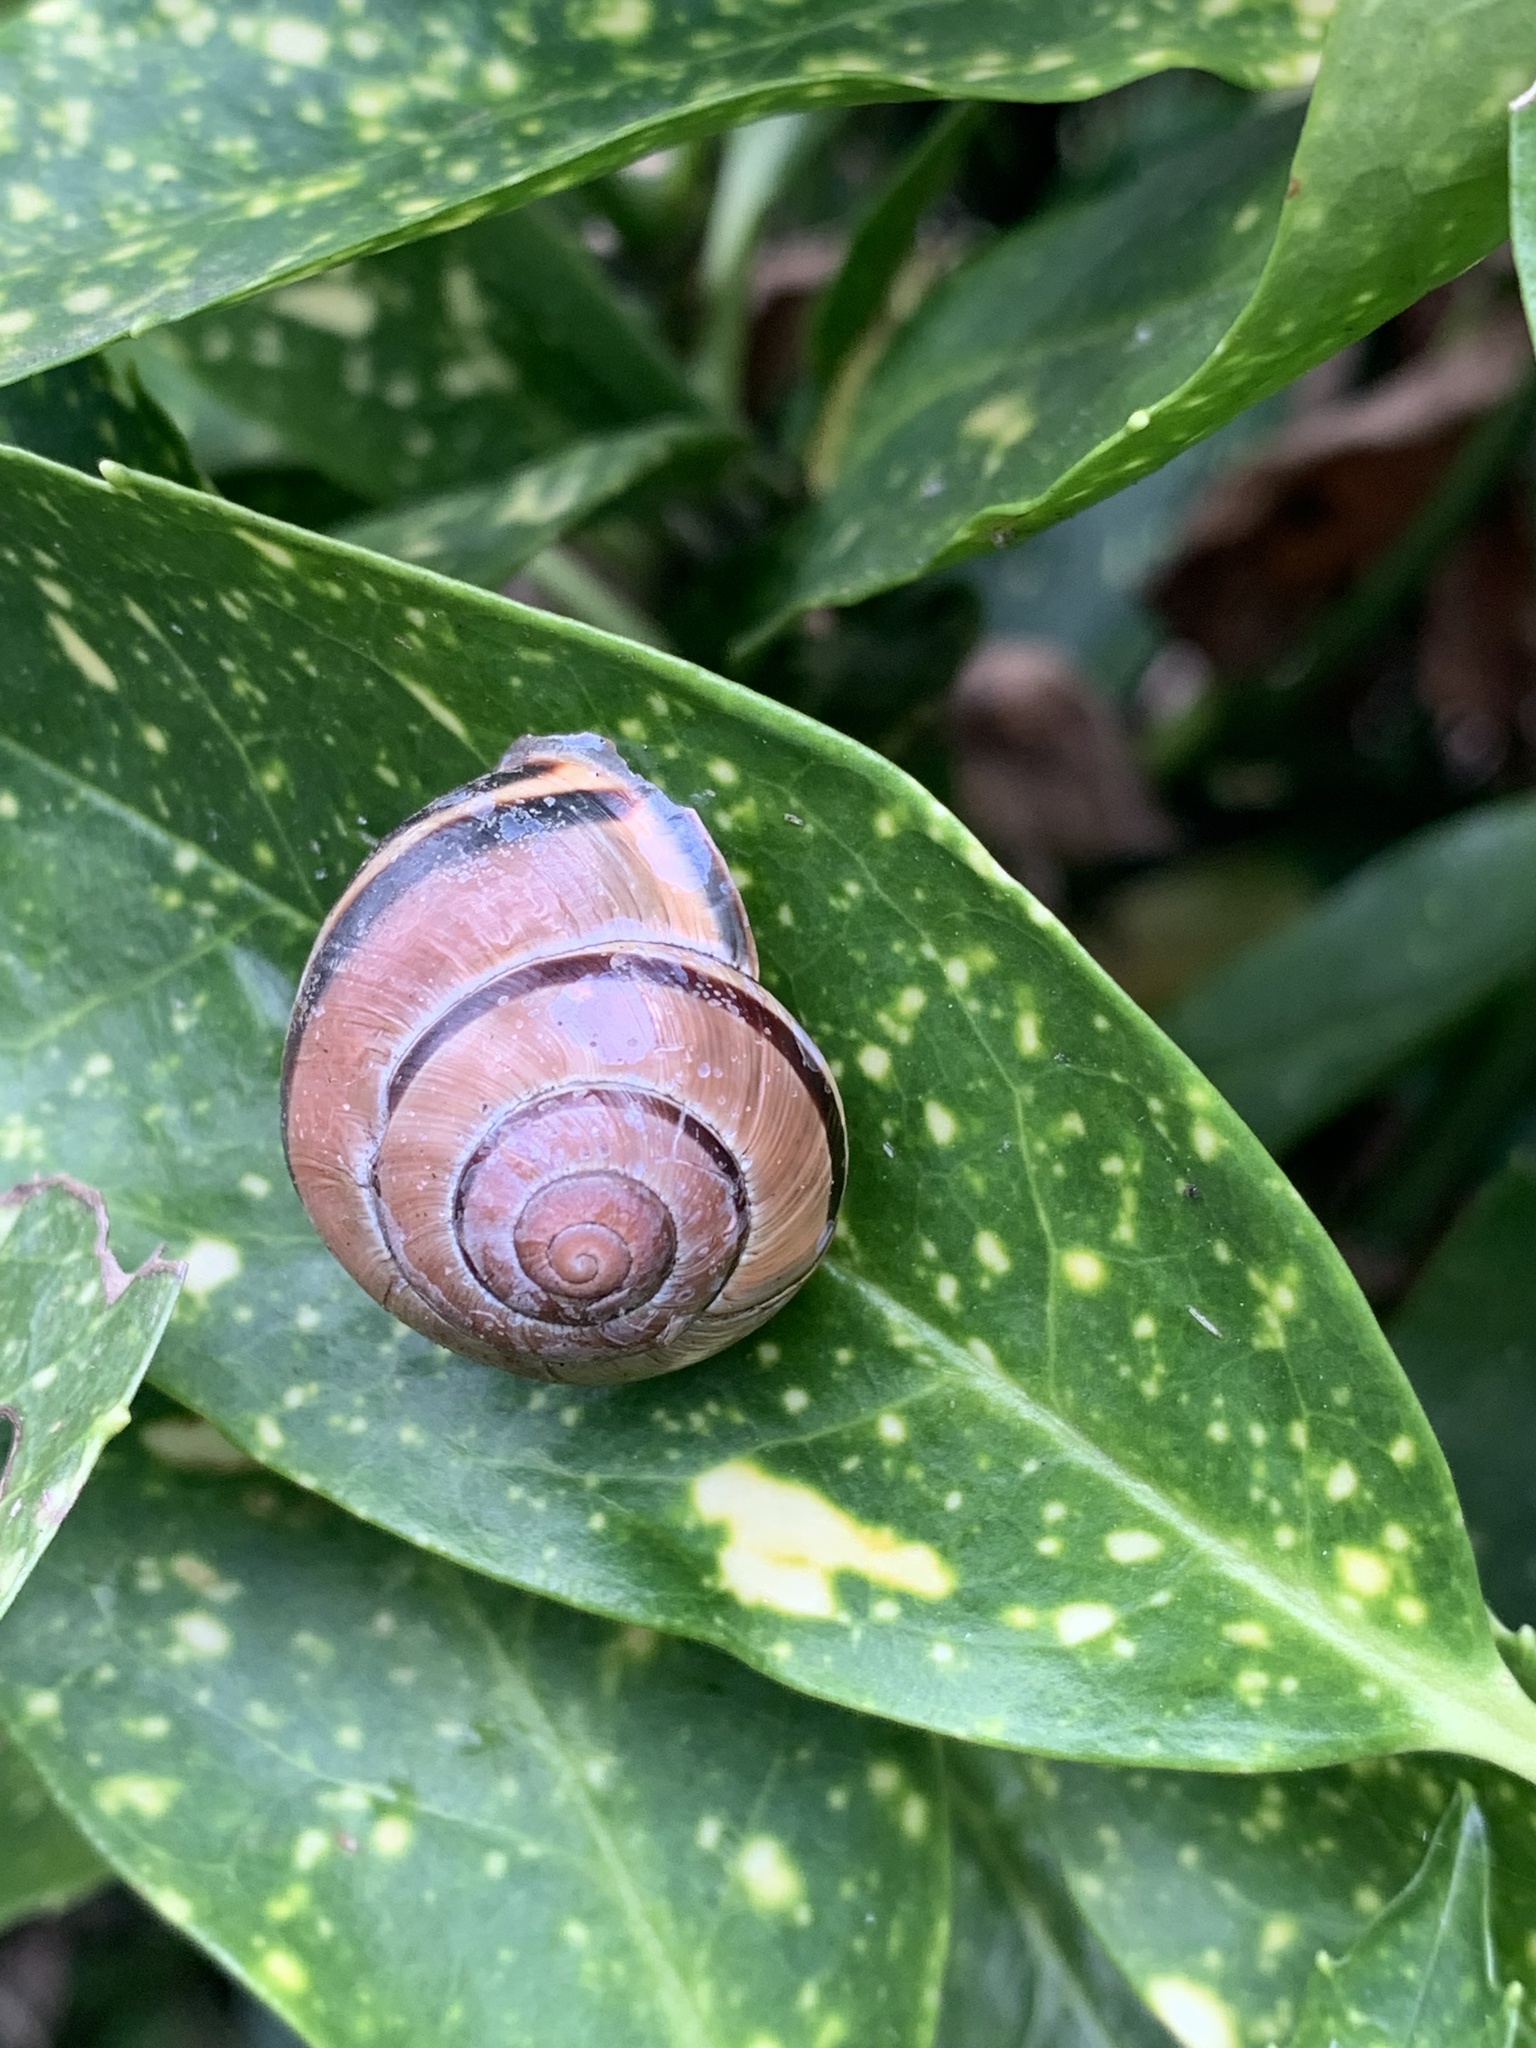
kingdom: Animalia
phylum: Mollusca
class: Gastropoda
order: Stylommatophora
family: Helicidae
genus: Cepaea
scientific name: Cepaea nemoralis
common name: Grovesnail
